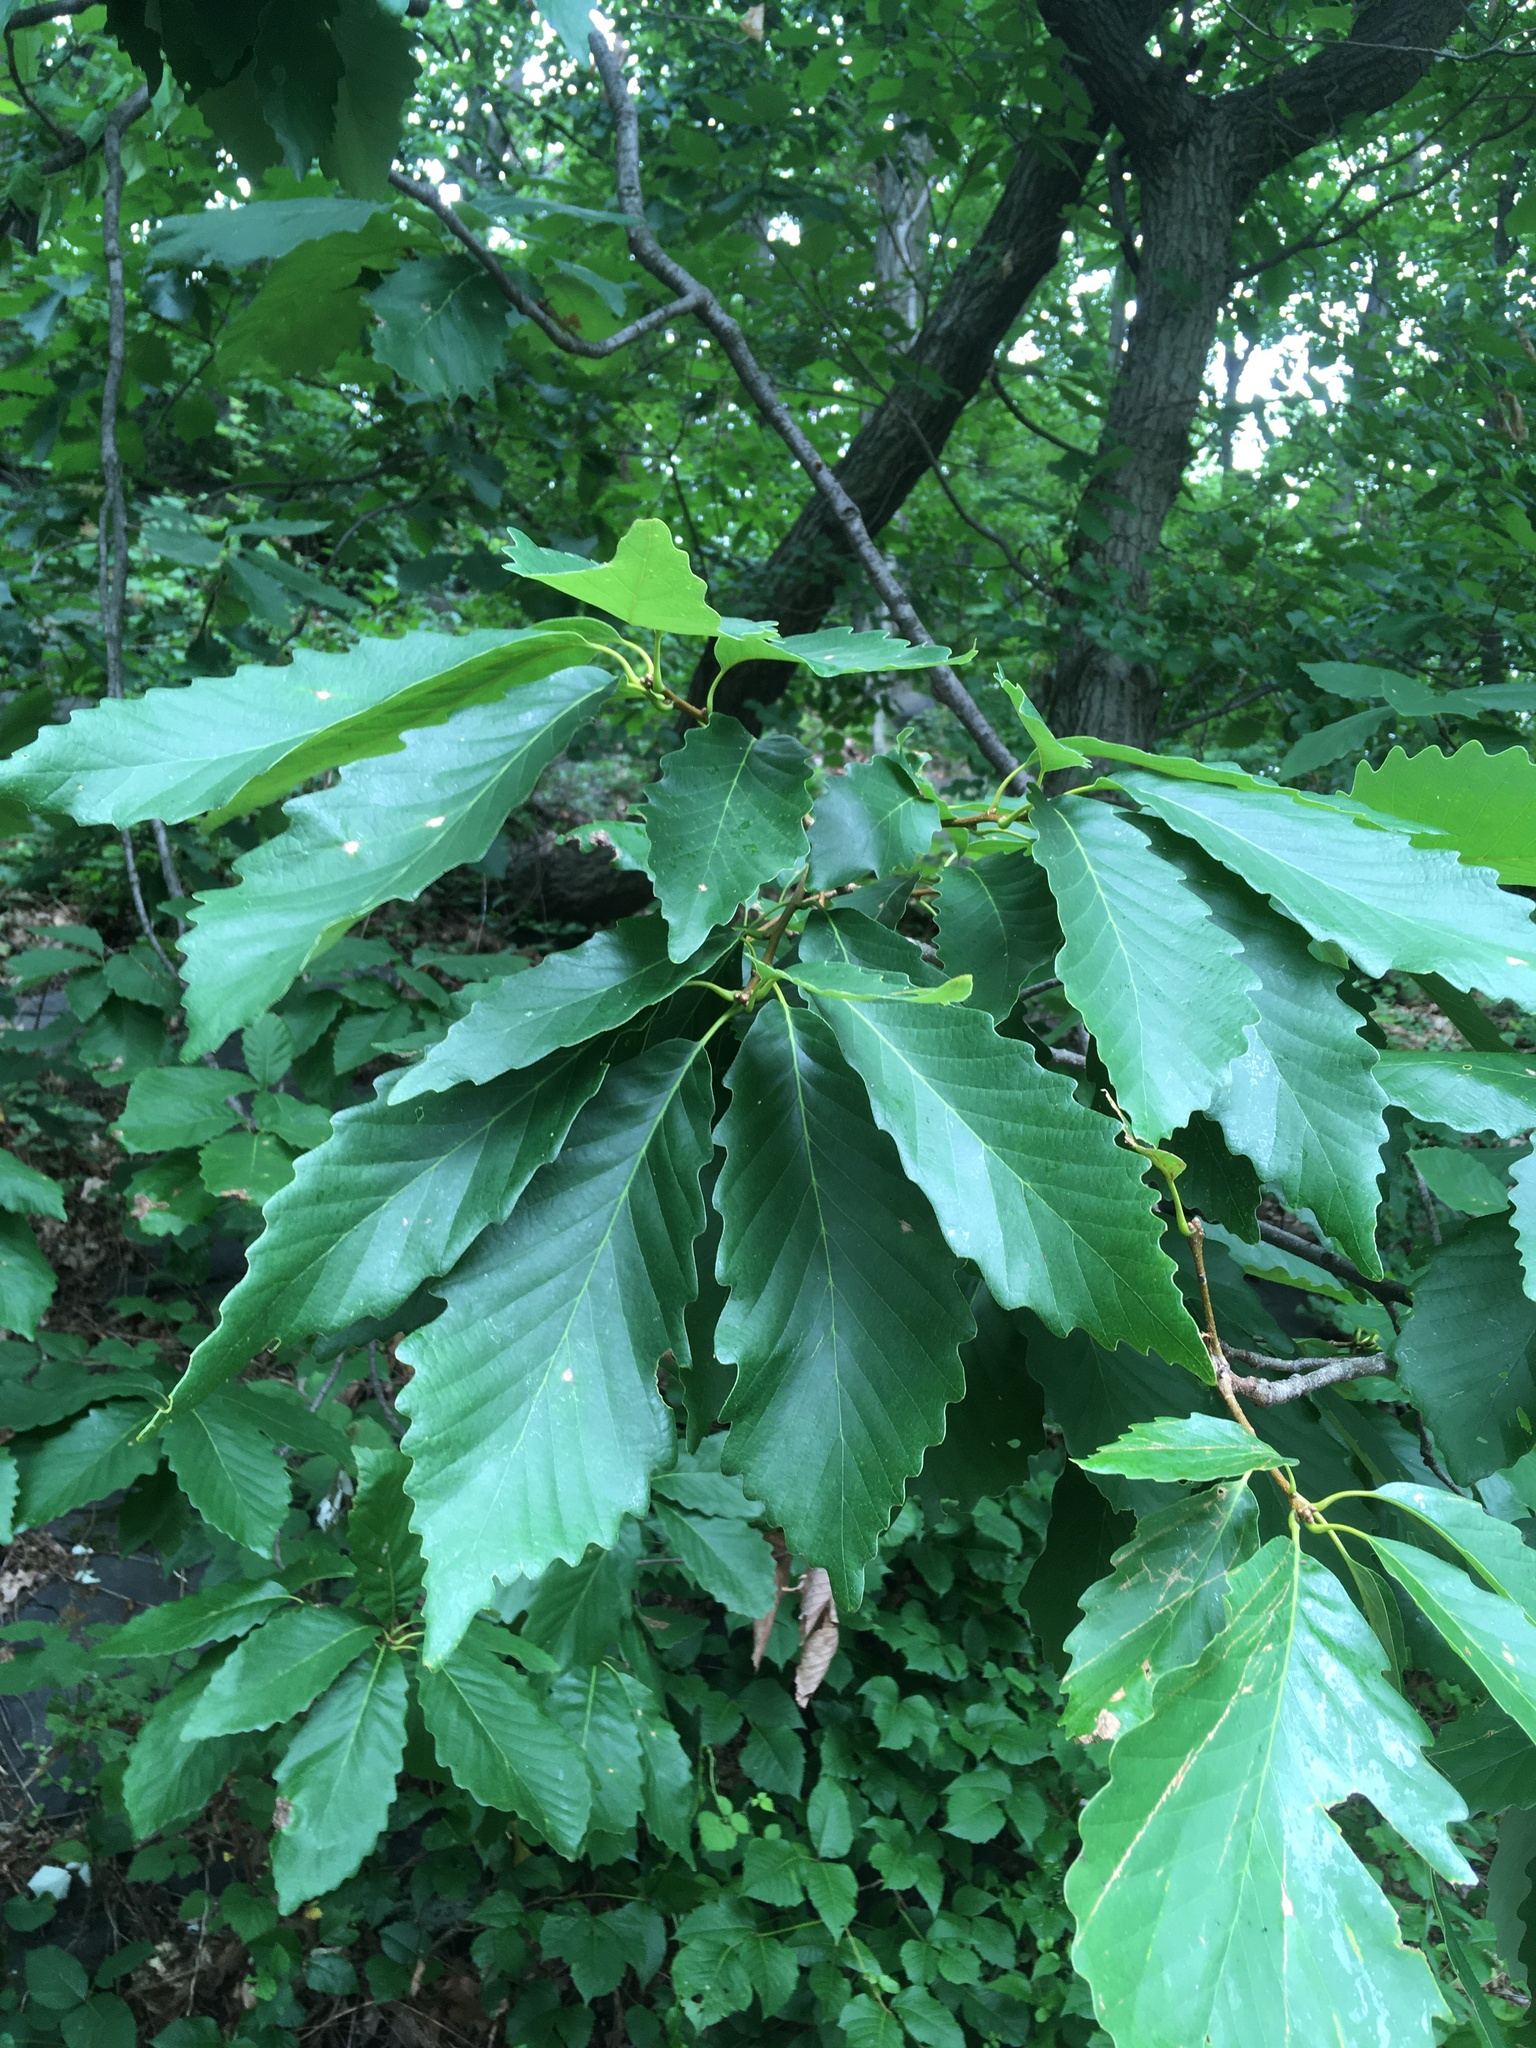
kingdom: Plantae
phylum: Tracheophyta
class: Magnoliopsida
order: Fagales
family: Fagaceae
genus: Quercus
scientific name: Quercus montana
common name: Chestnut oak
